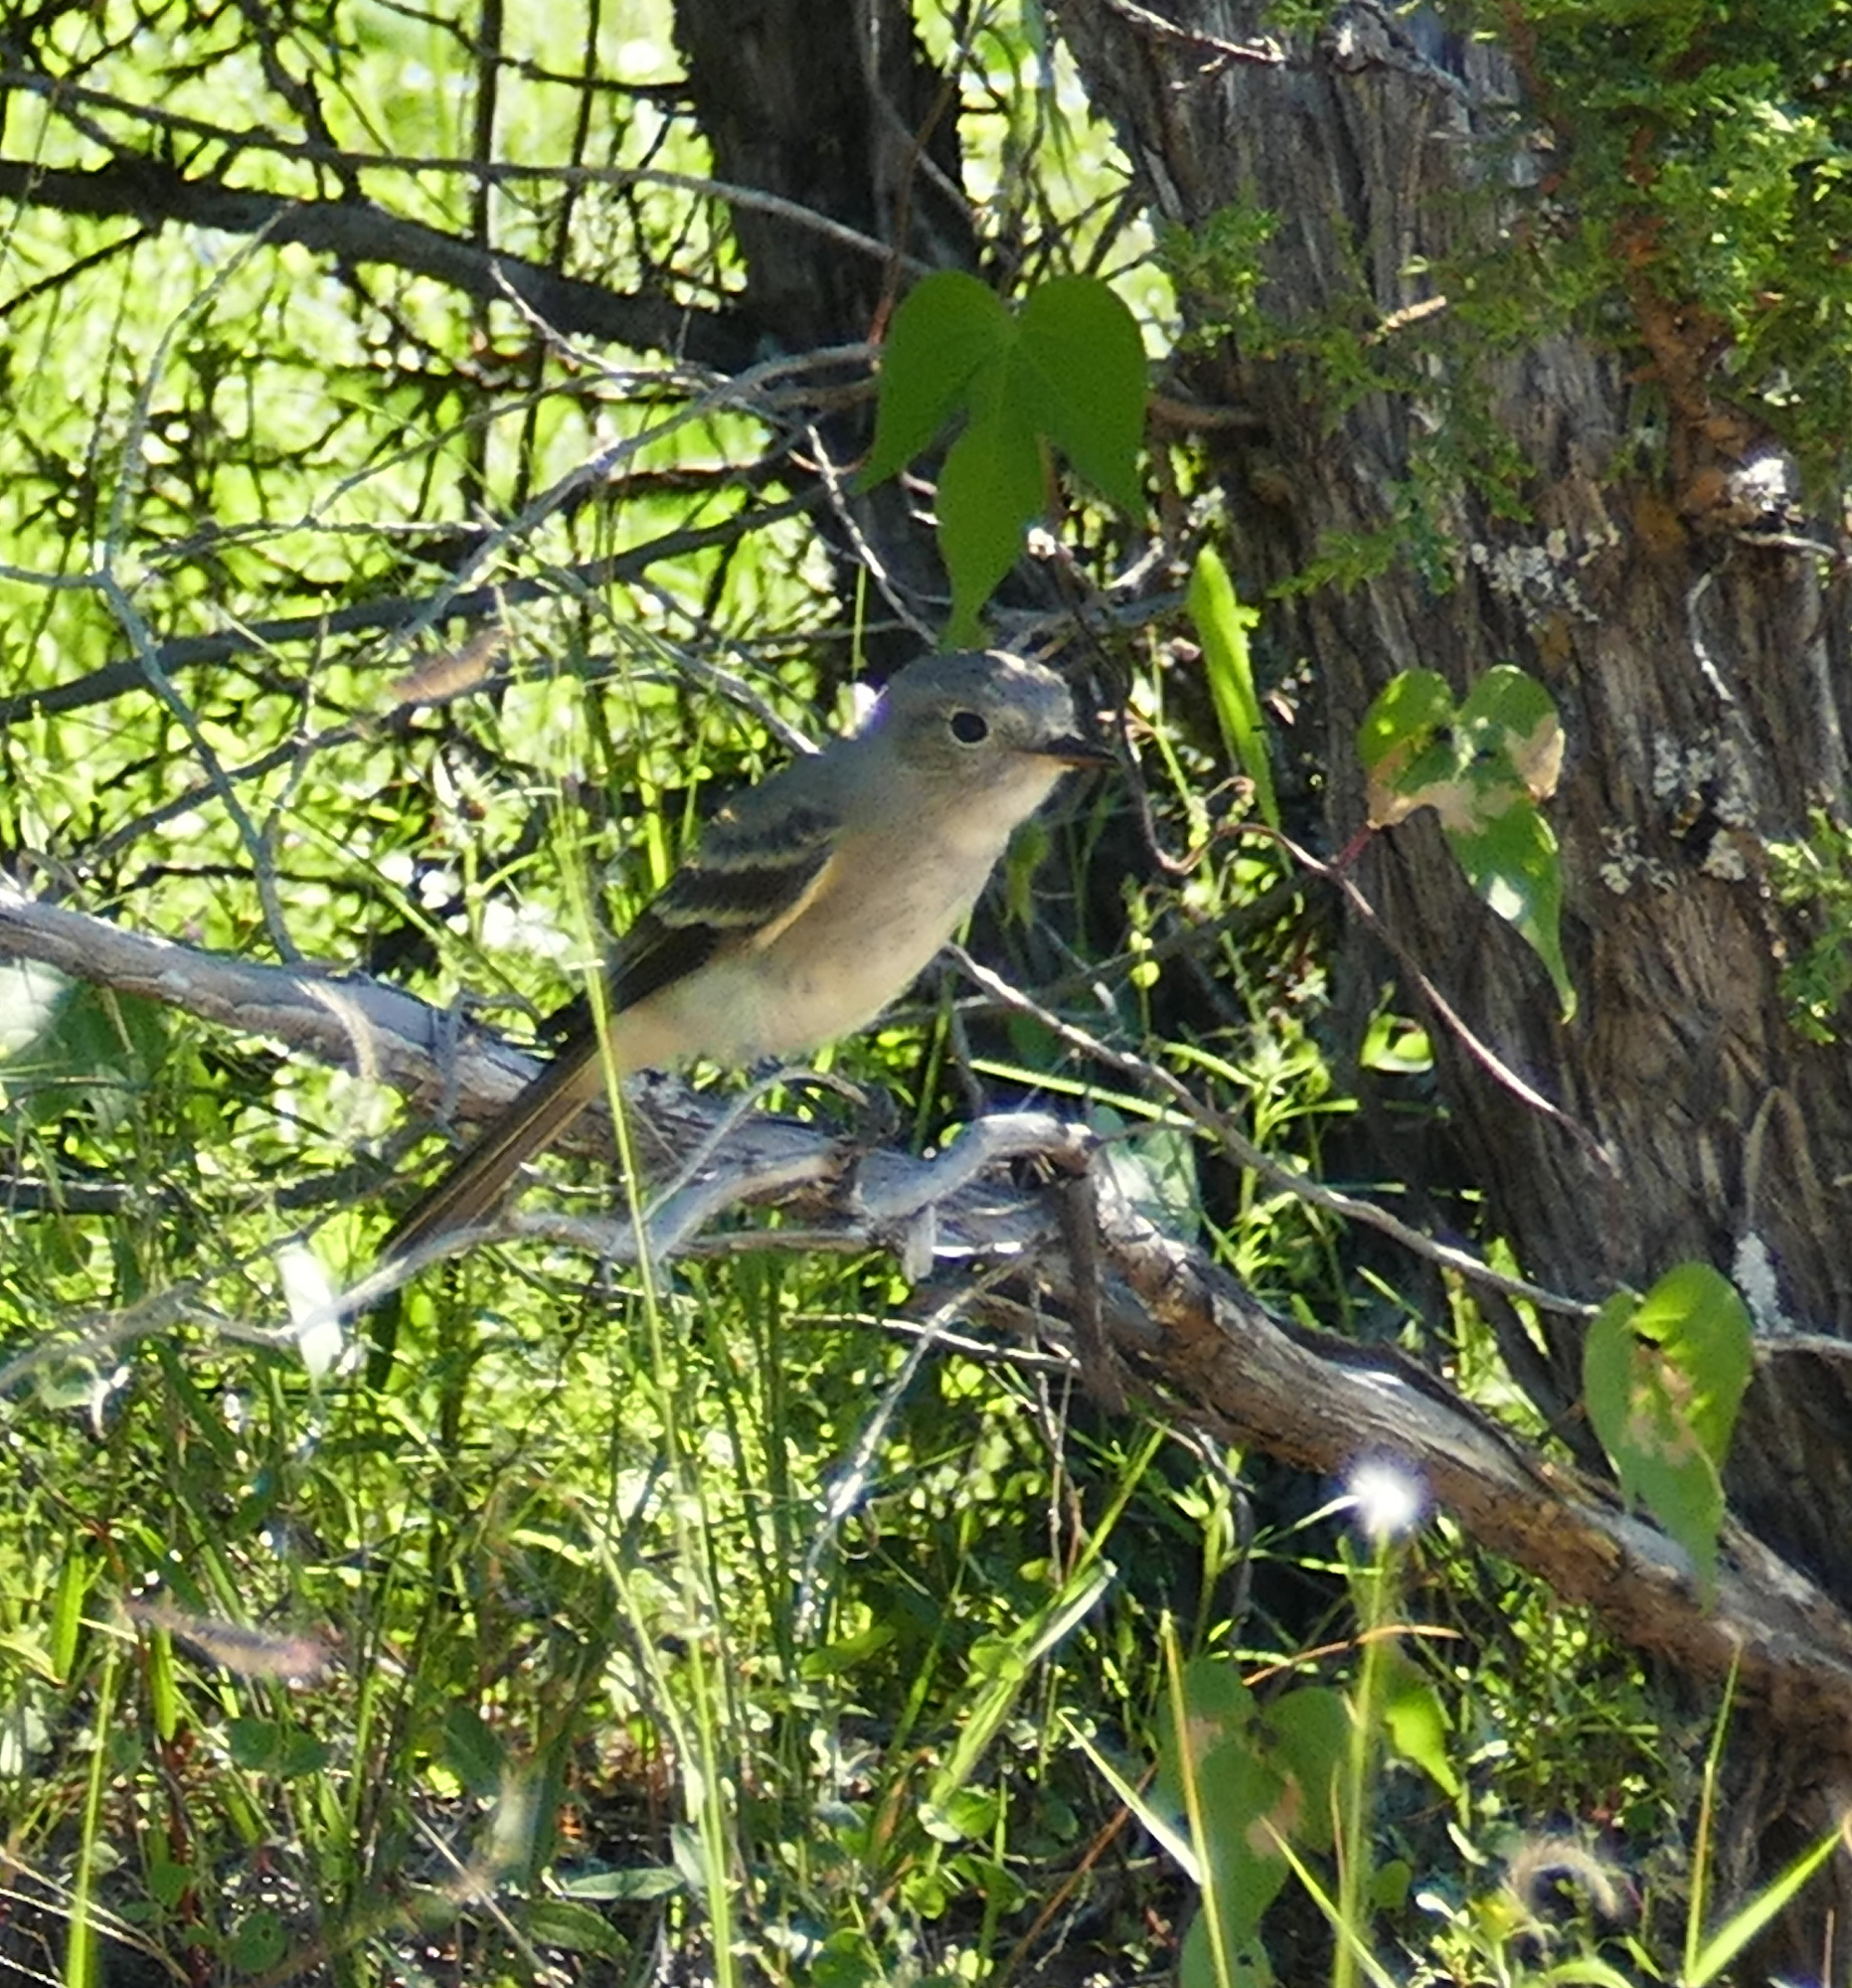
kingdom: Animalia
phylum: Chordata
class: Aves
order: Passeriformes
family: Tyrannidae
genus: Empidonax
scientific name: Empidonax wrightii
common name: Gray flycatcher
